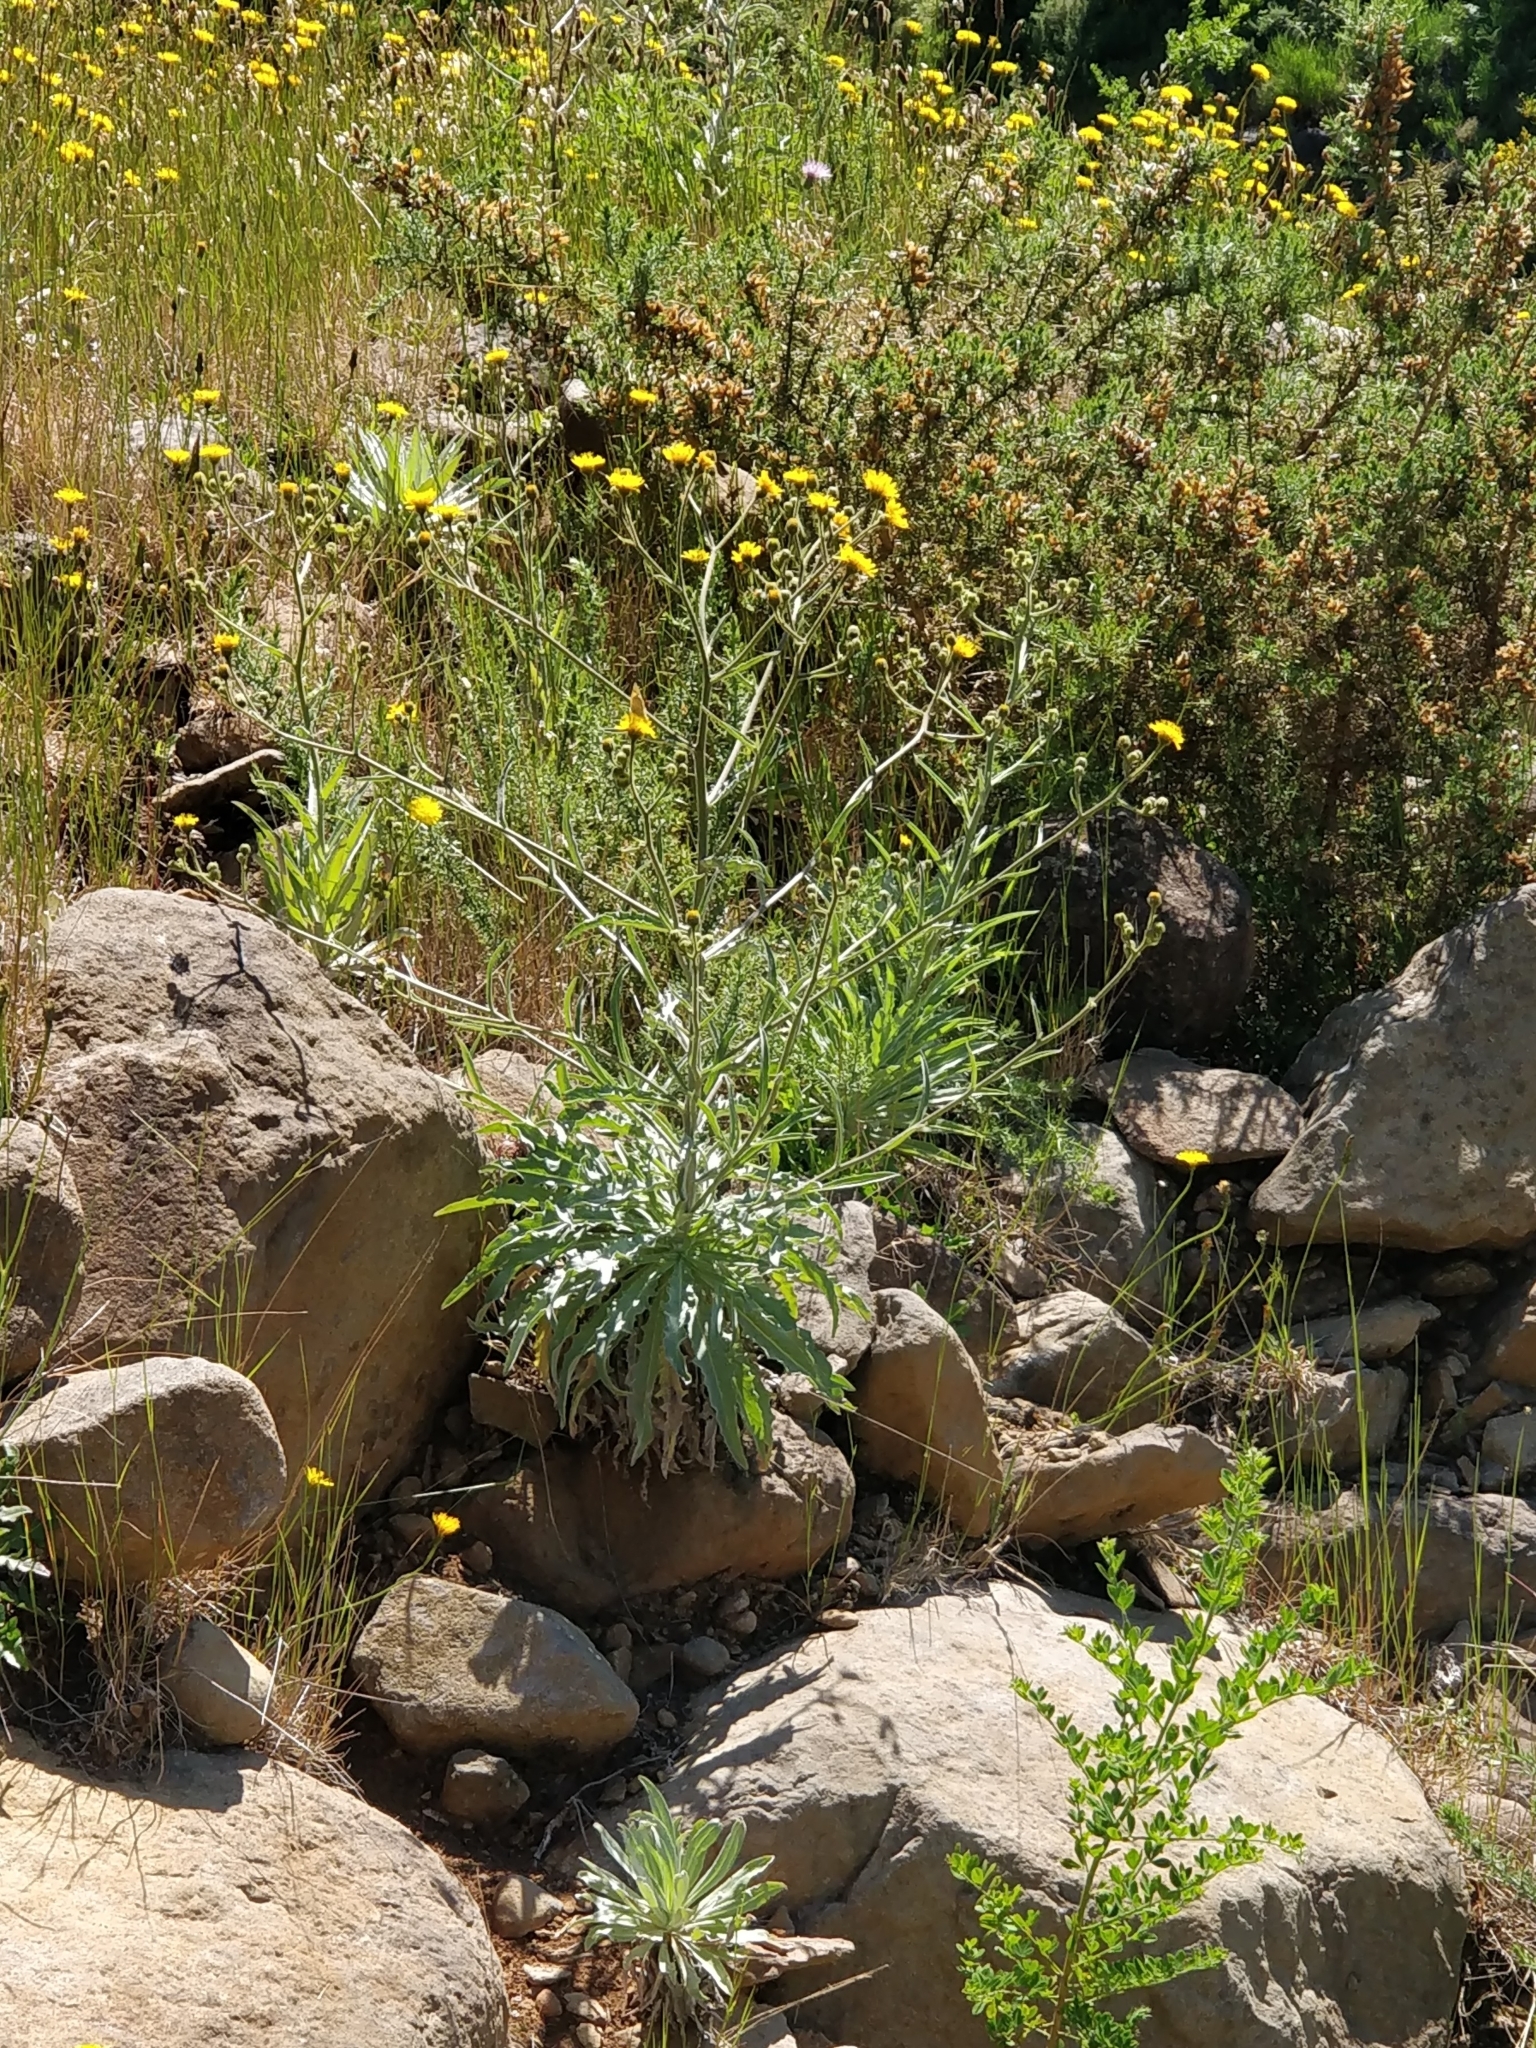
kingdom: Plantae
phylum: Tracheophyta
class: Magnoliopsida
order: Asterales
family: Asteraceae
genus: Andryala
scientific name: Andryala glandulosa
